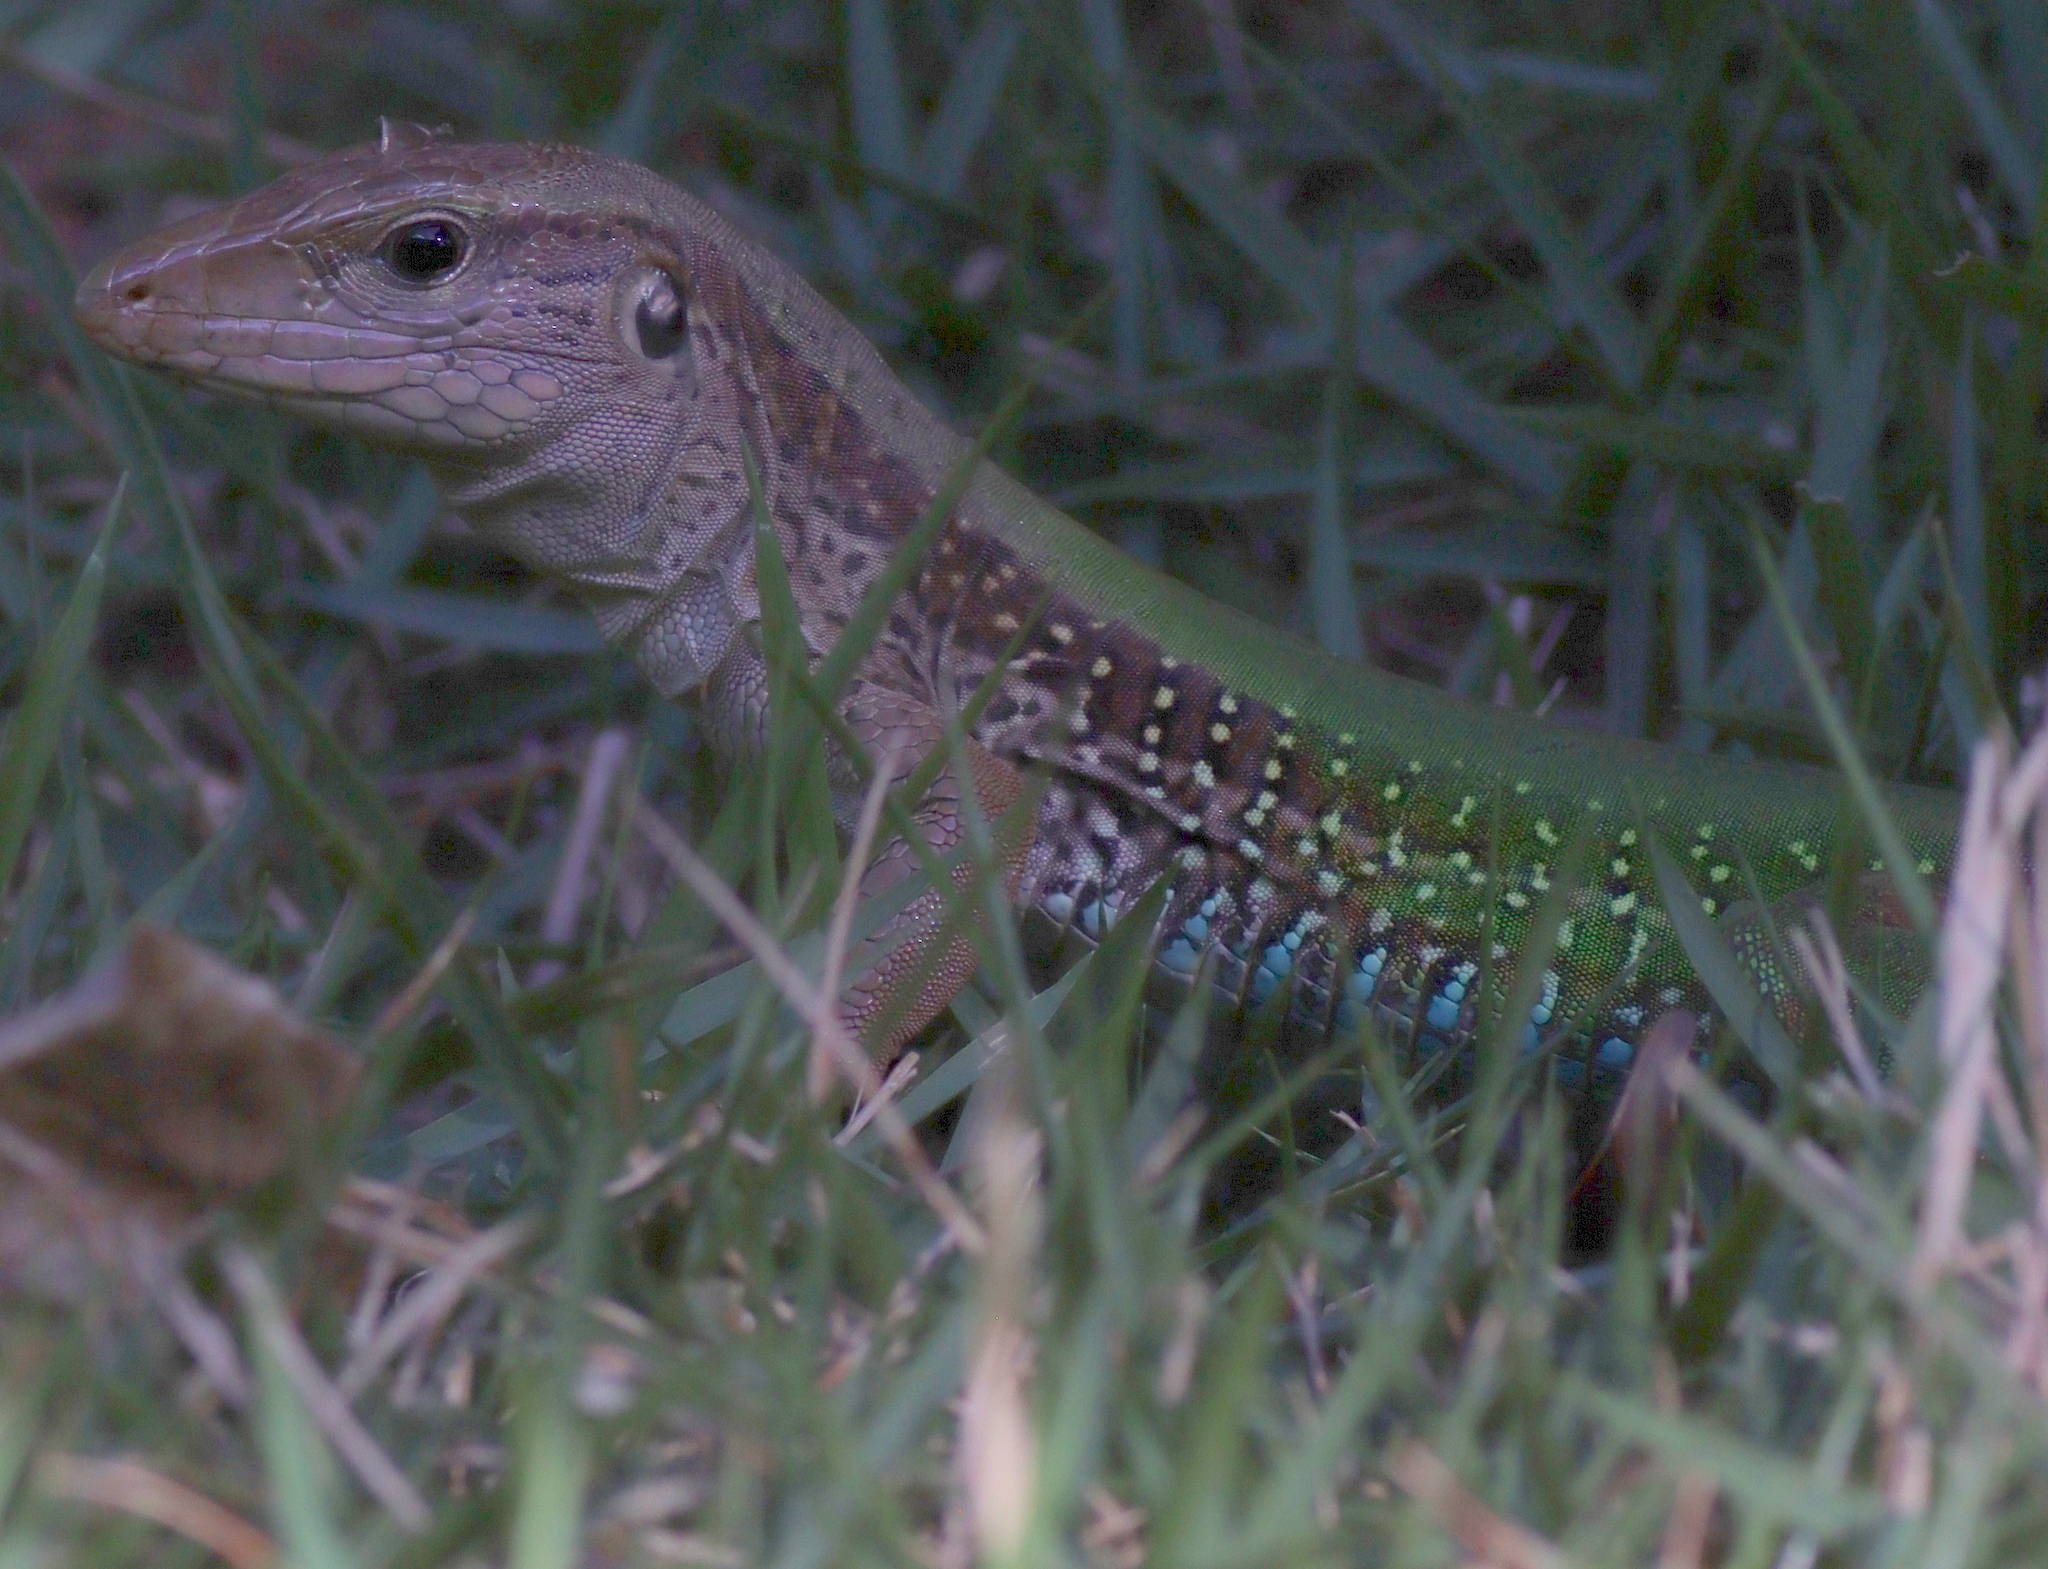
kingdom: Animalia
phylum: Chordata
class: Squamata
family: Teiidae
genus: Ameiva
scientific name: Ameiva ameiva
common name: Giant ameiva
